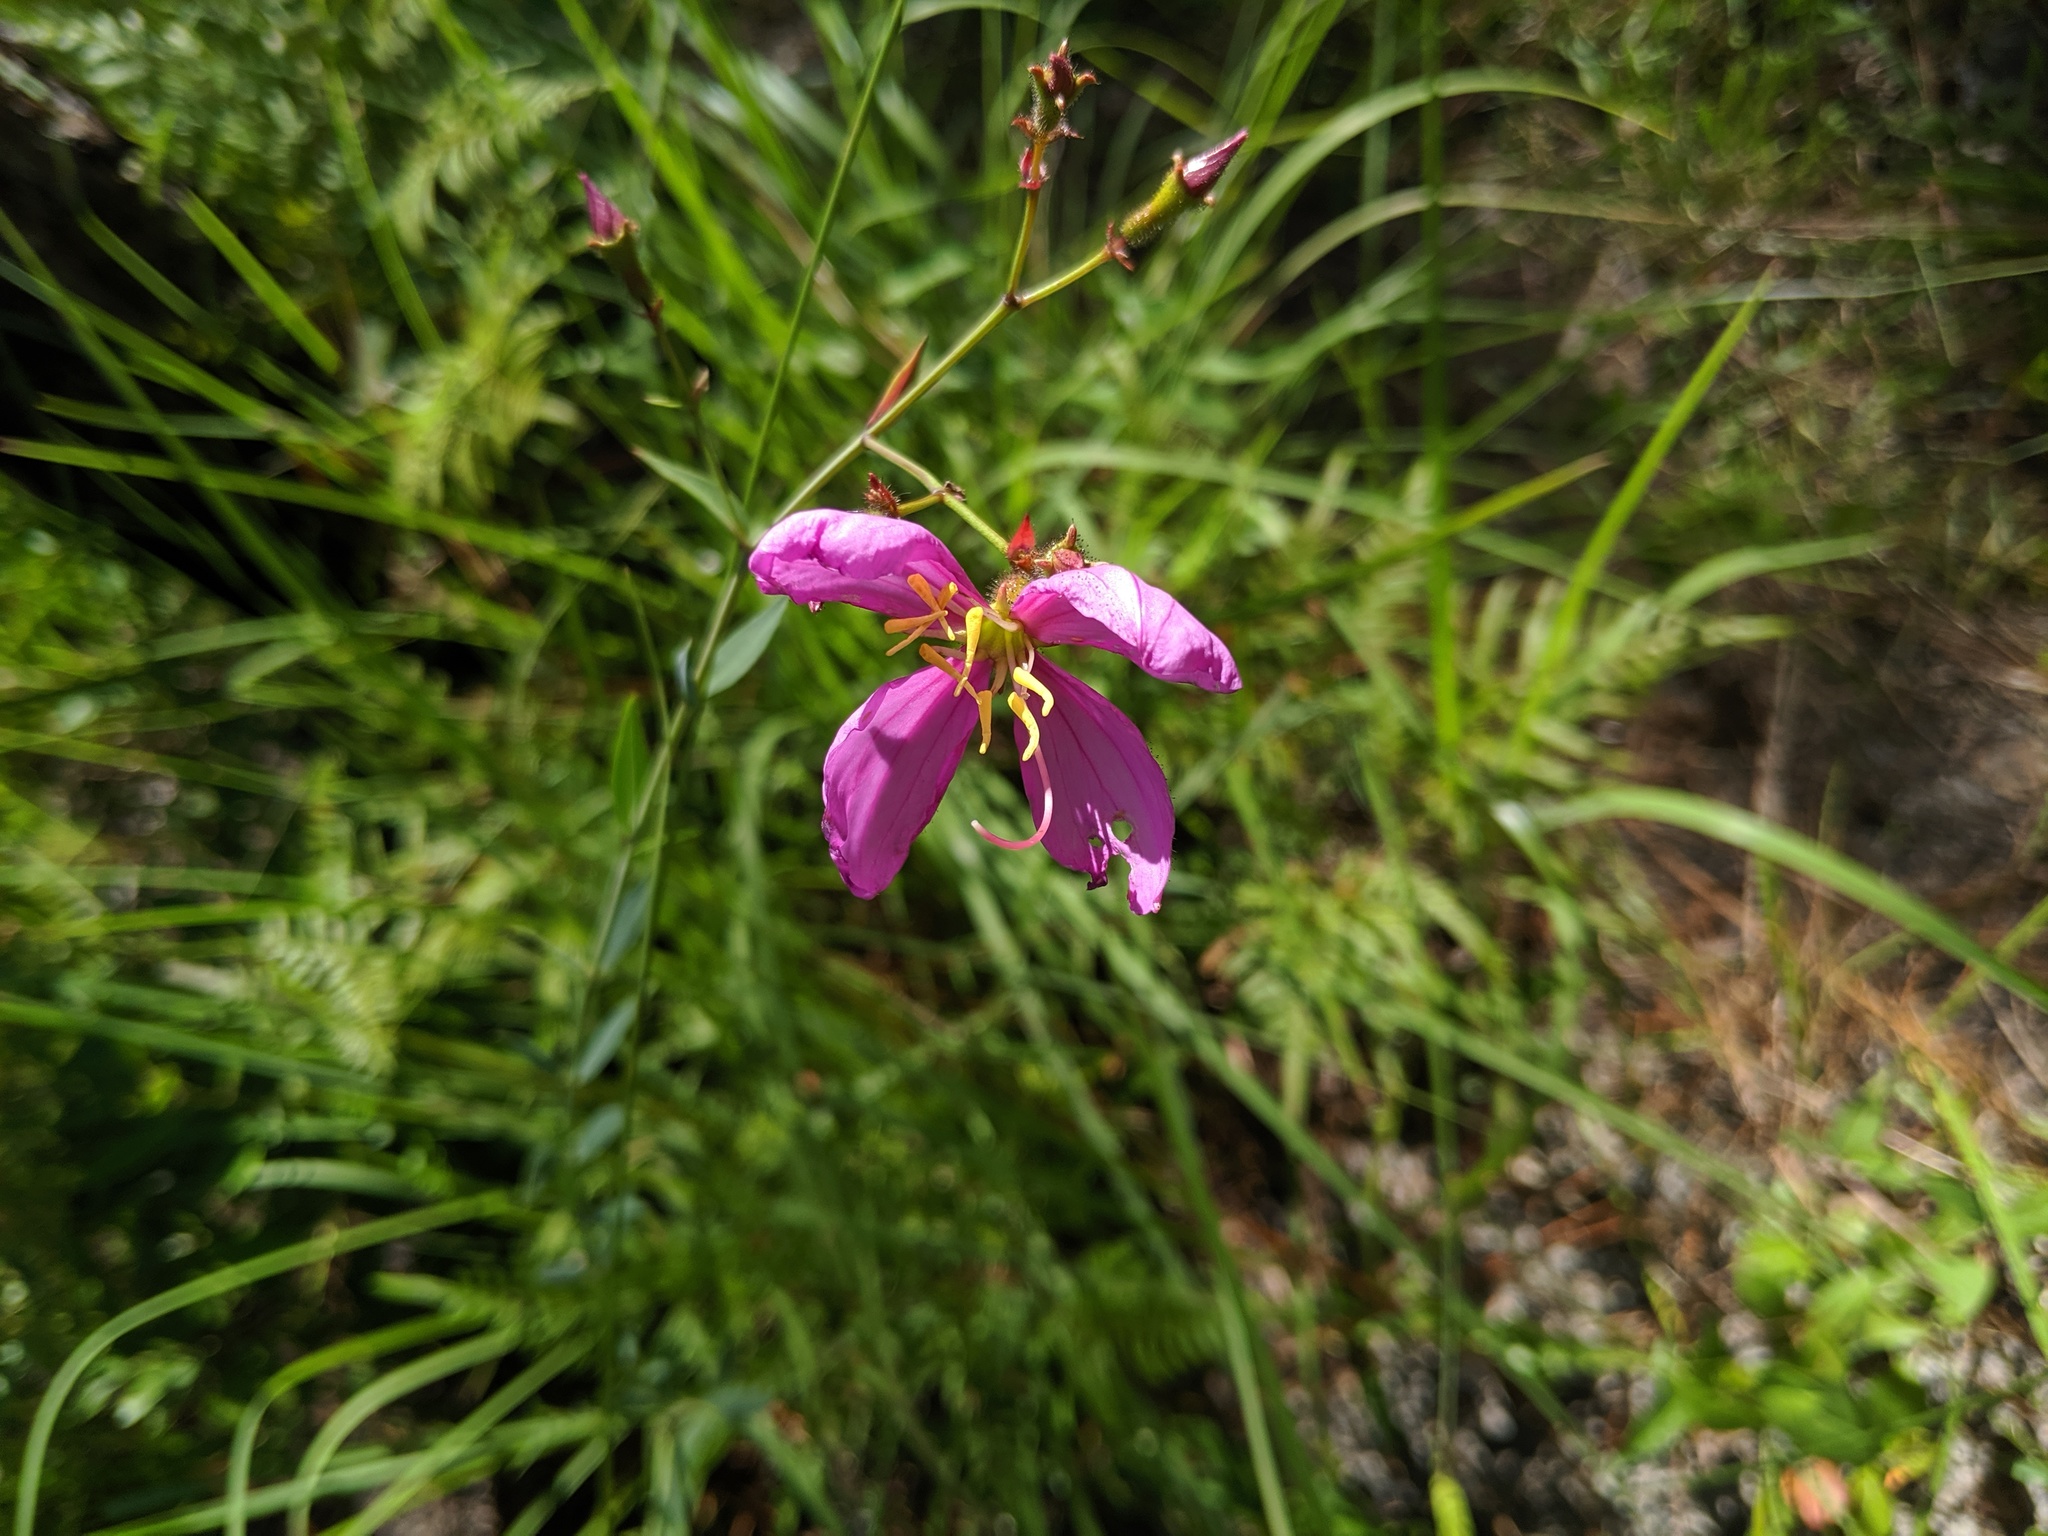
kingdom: Plantae
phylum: Tracheophyta
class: Magnoliopsida
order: Myrtales
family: Melastomataceae
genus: Rhexia
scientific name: Rhexia alifanus
